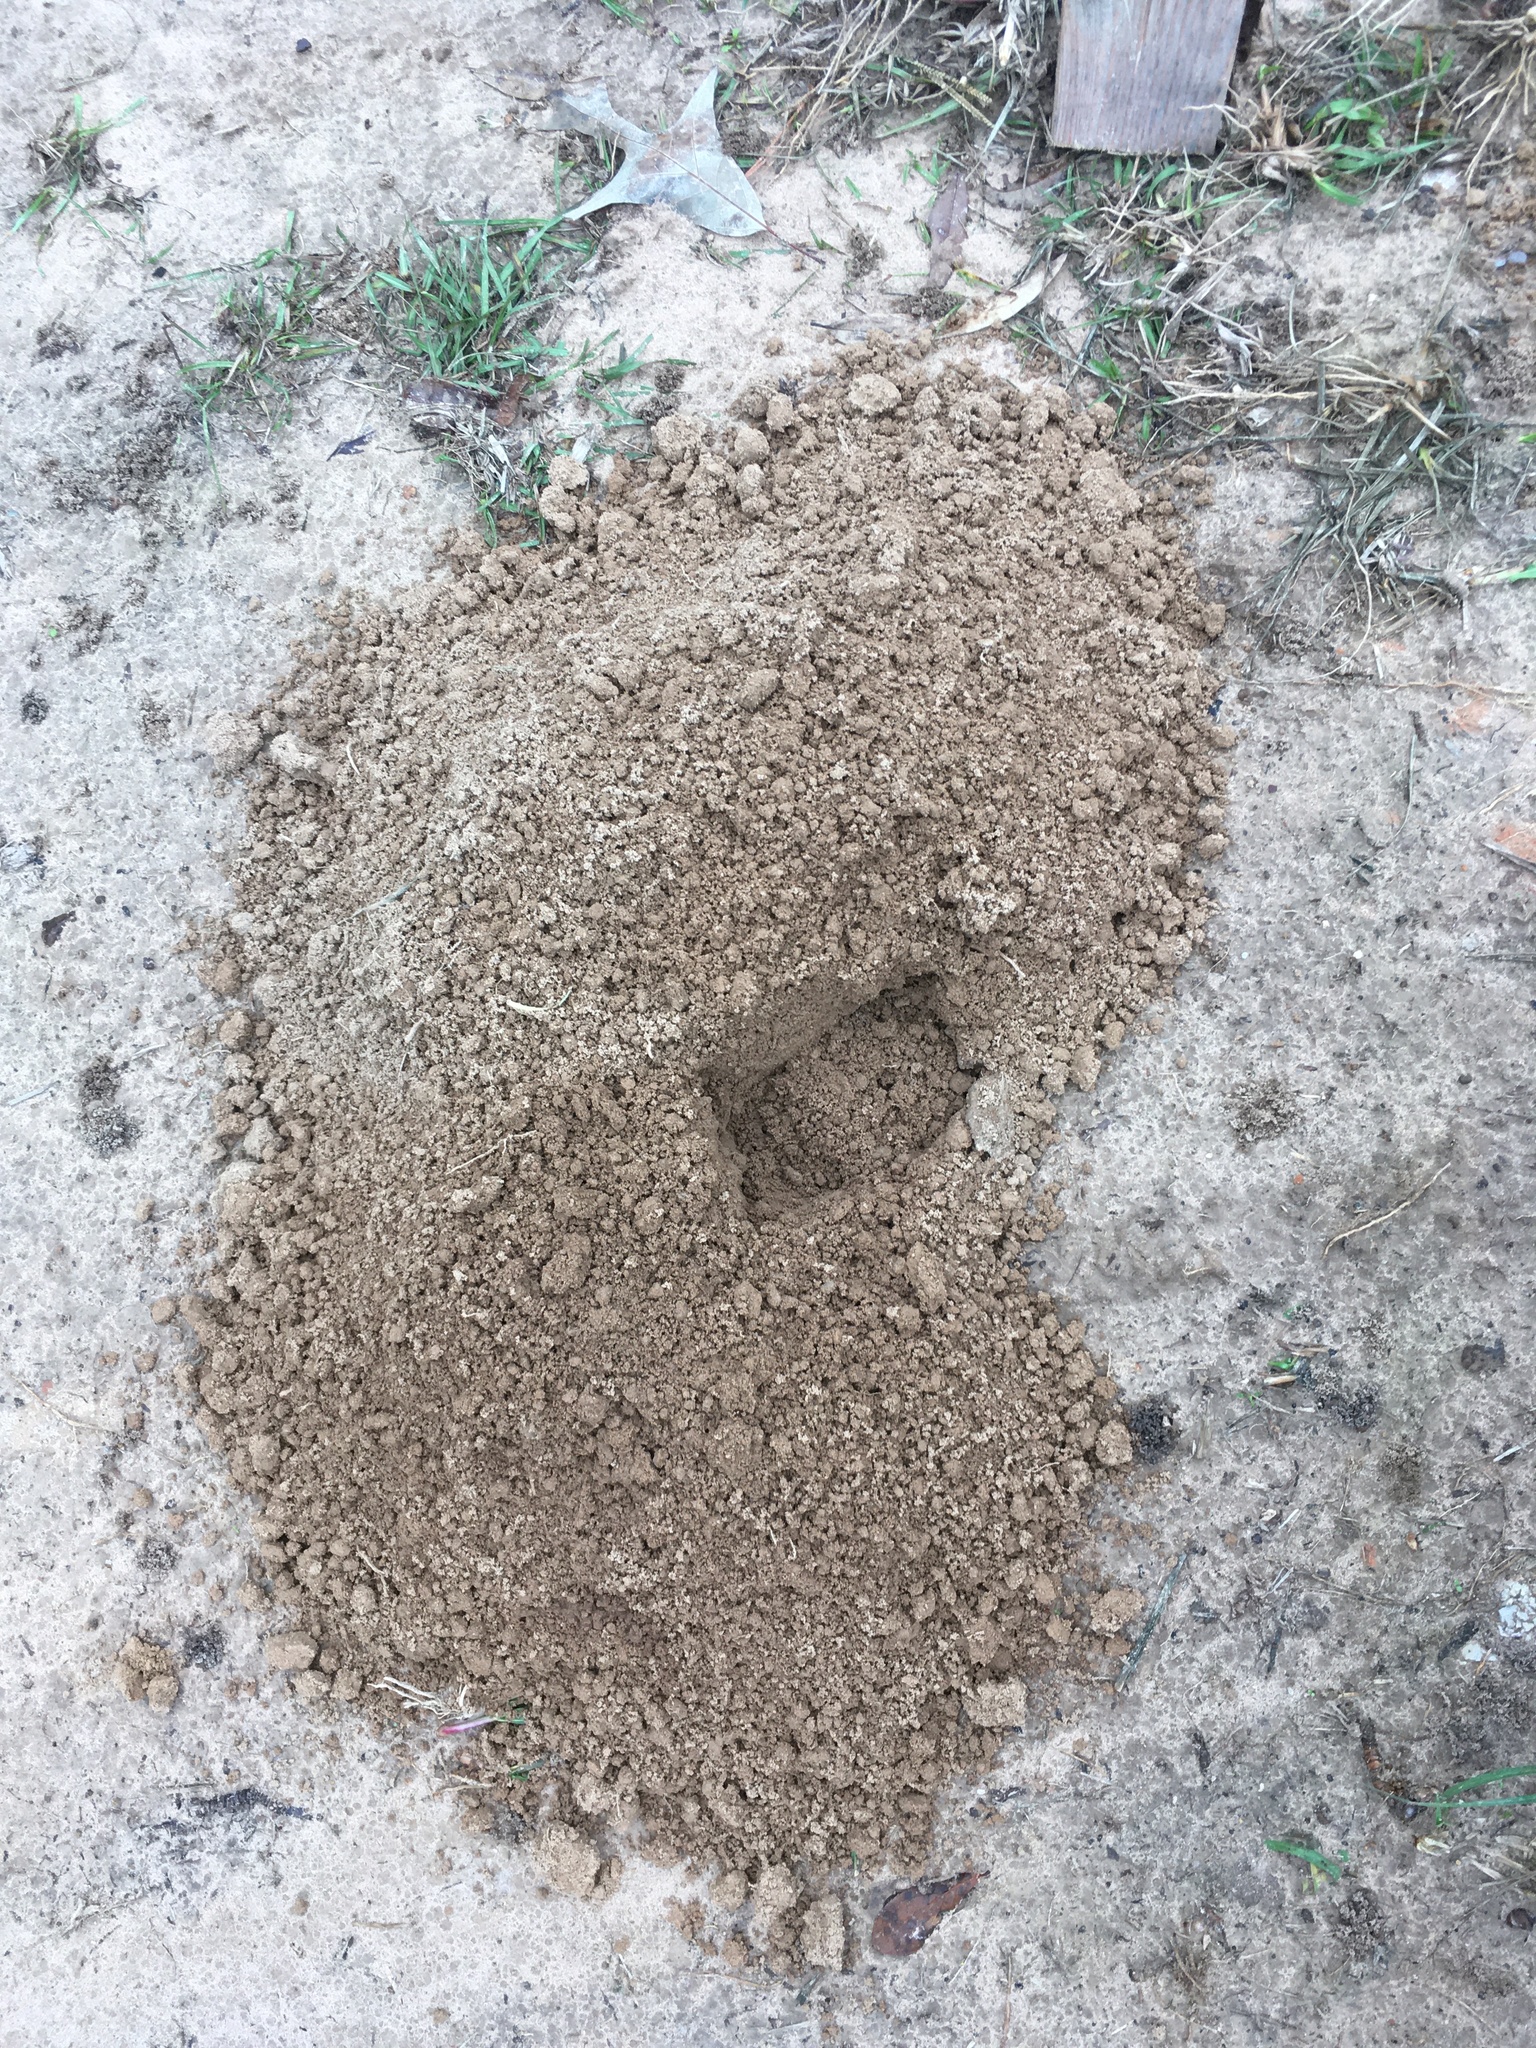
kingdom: Animalia
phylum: Chordata
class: Mammalia
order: Rodentia
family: Geomyidae
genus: Geomys
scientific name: Geomys breviceps
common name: Baird's pocket gopher
